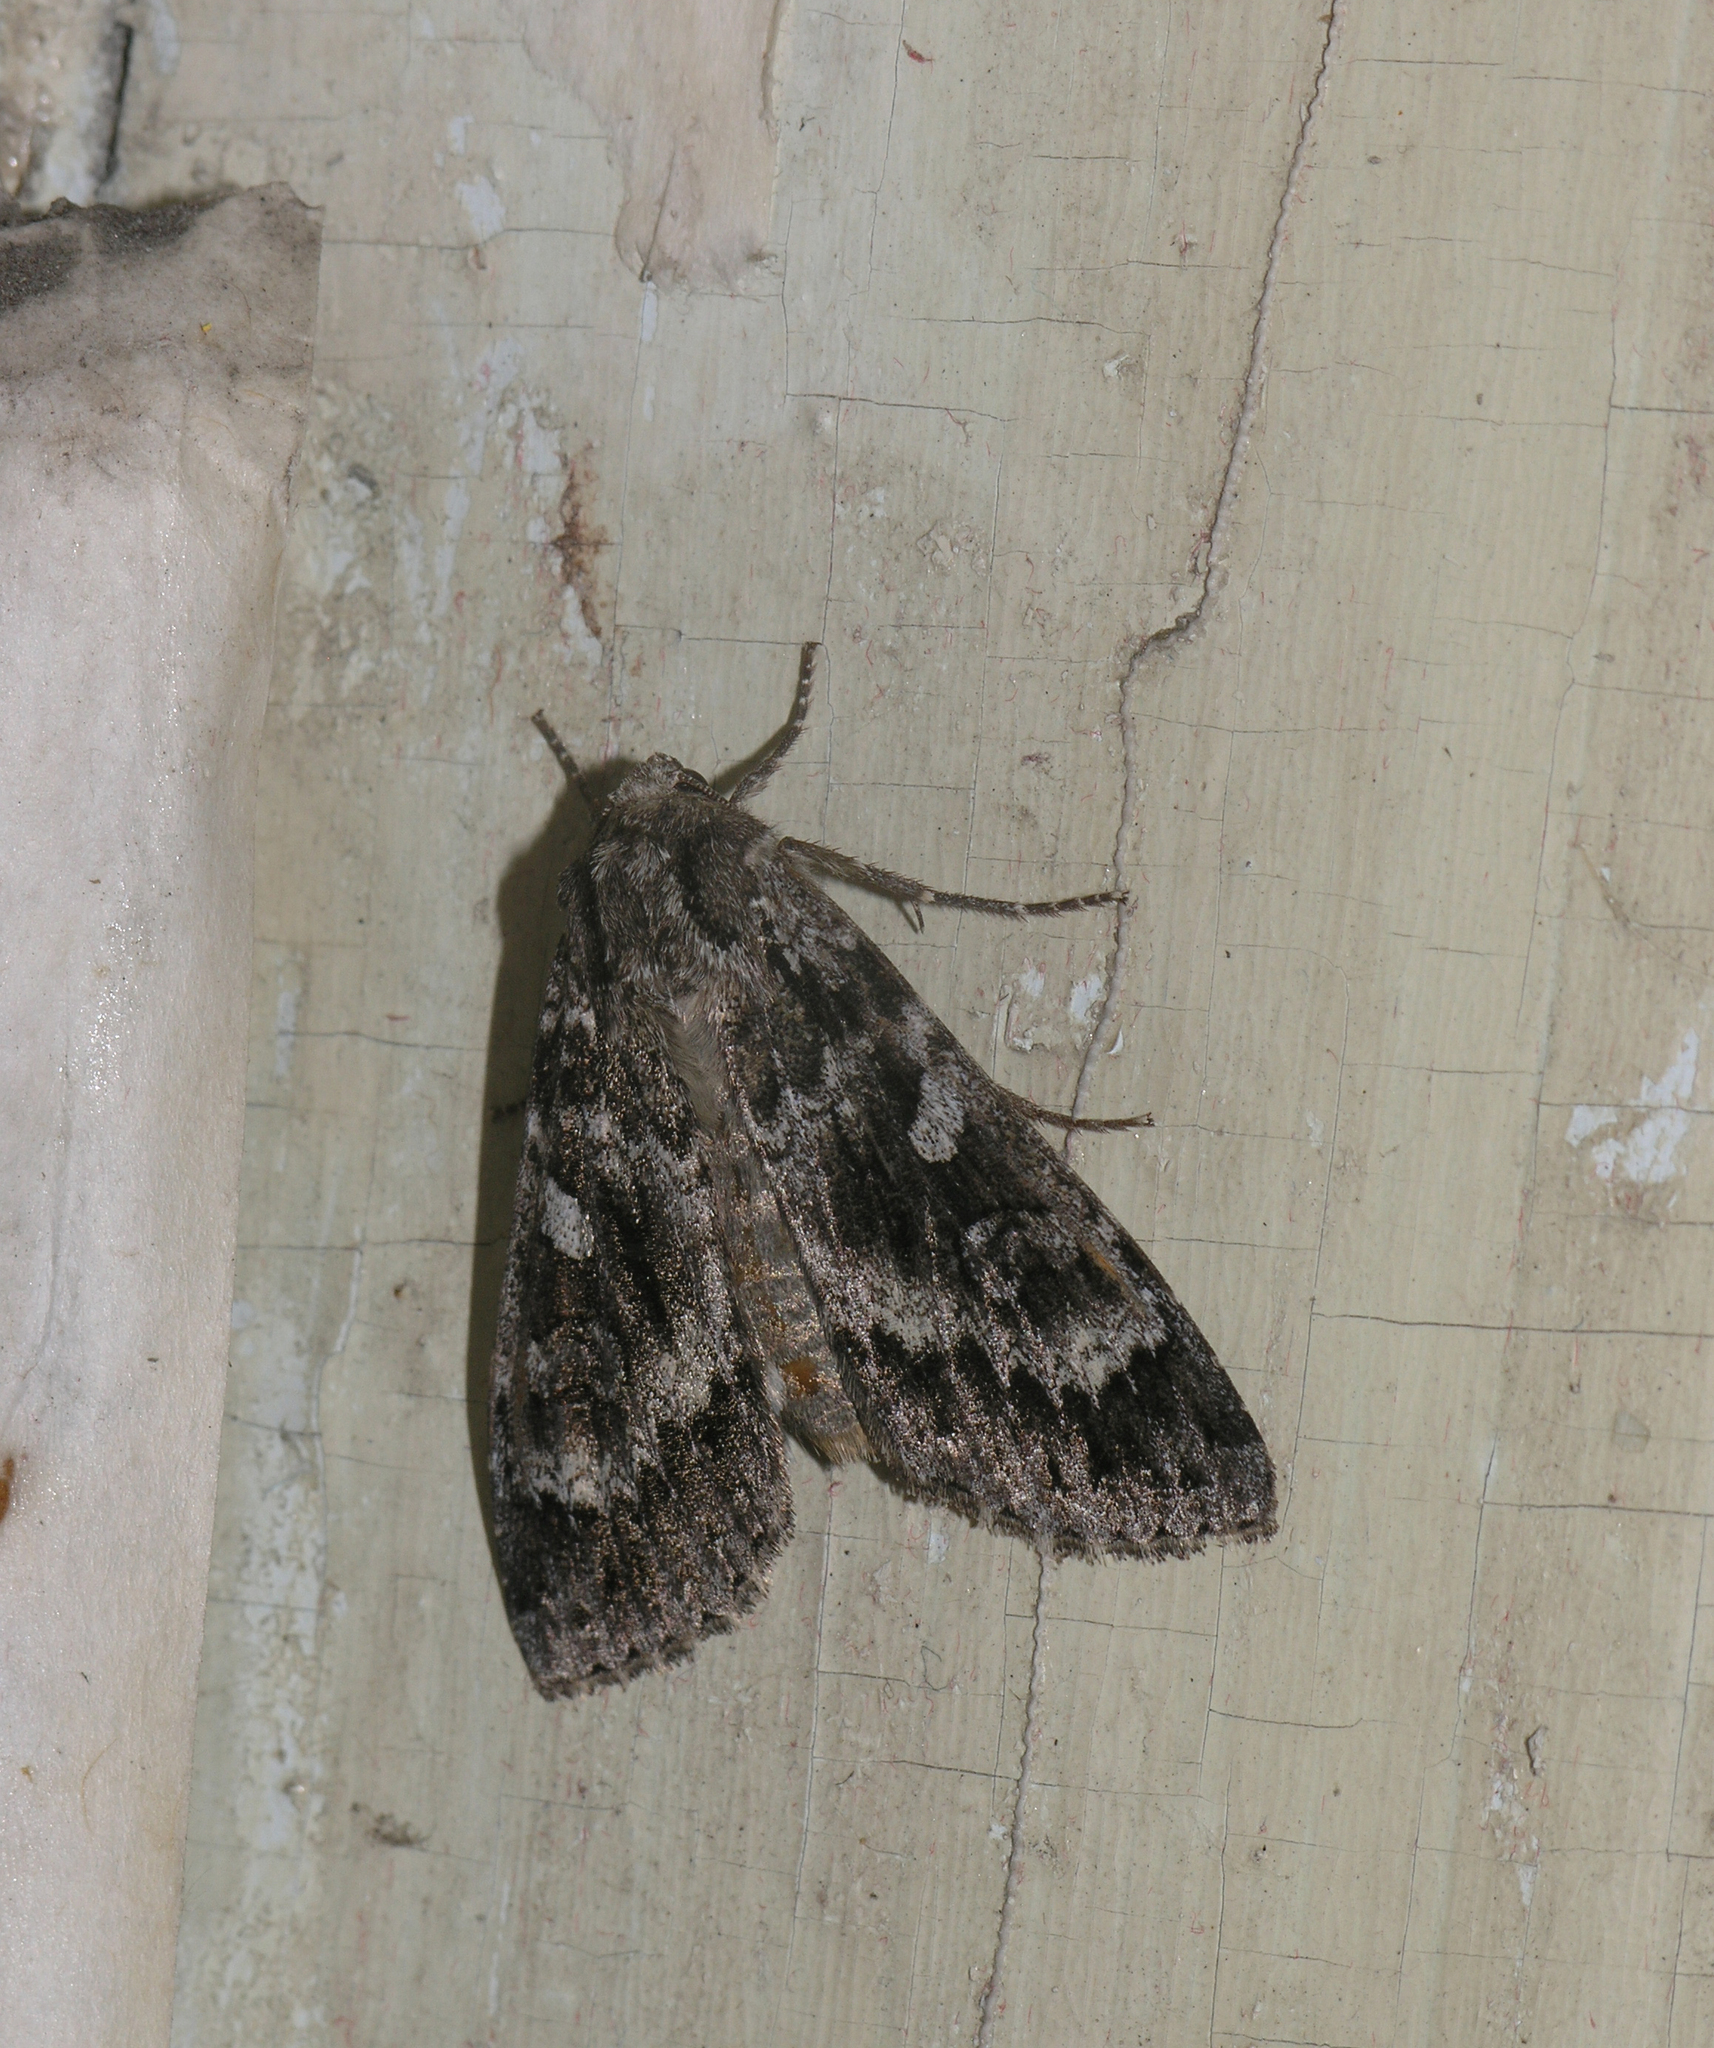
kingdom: Animalia
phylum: Arthropoda
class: Insecta
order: Lepidoptera
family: Noctuidae
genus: Eurois
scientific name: Eurois occulta
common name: Great brocade
